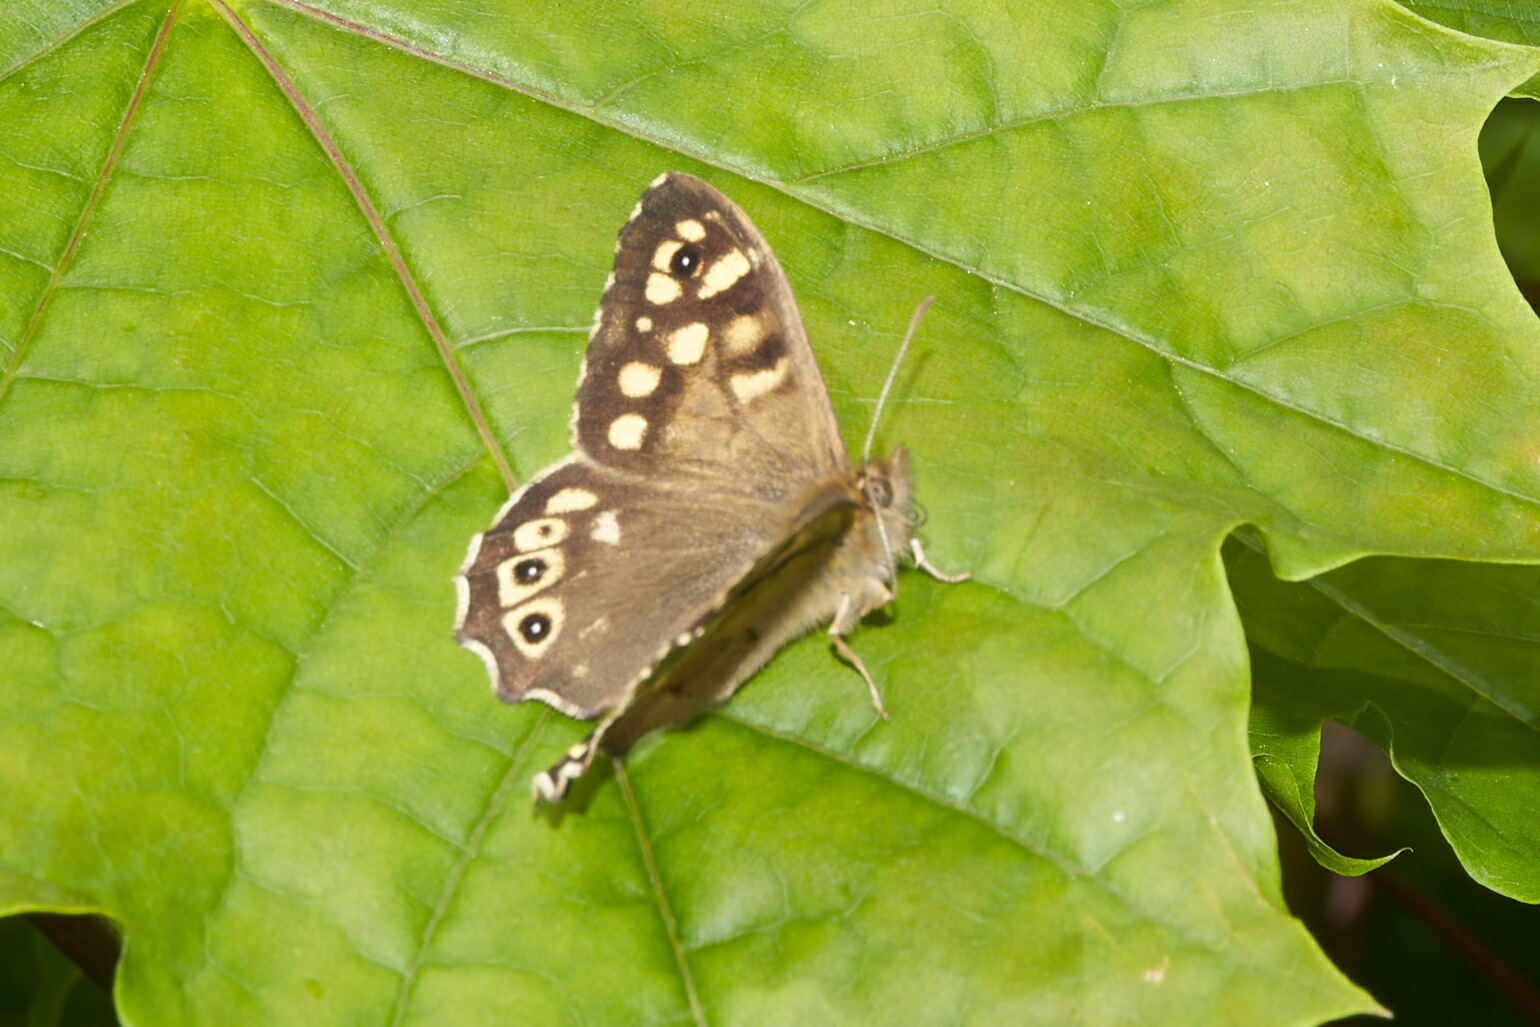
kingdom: Animalia
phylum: Arthropoda
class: Insecta
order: Lepidoptera
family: Nymphalidae
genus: Pararge
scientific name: Pararge aegeria
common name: Speckled wood
